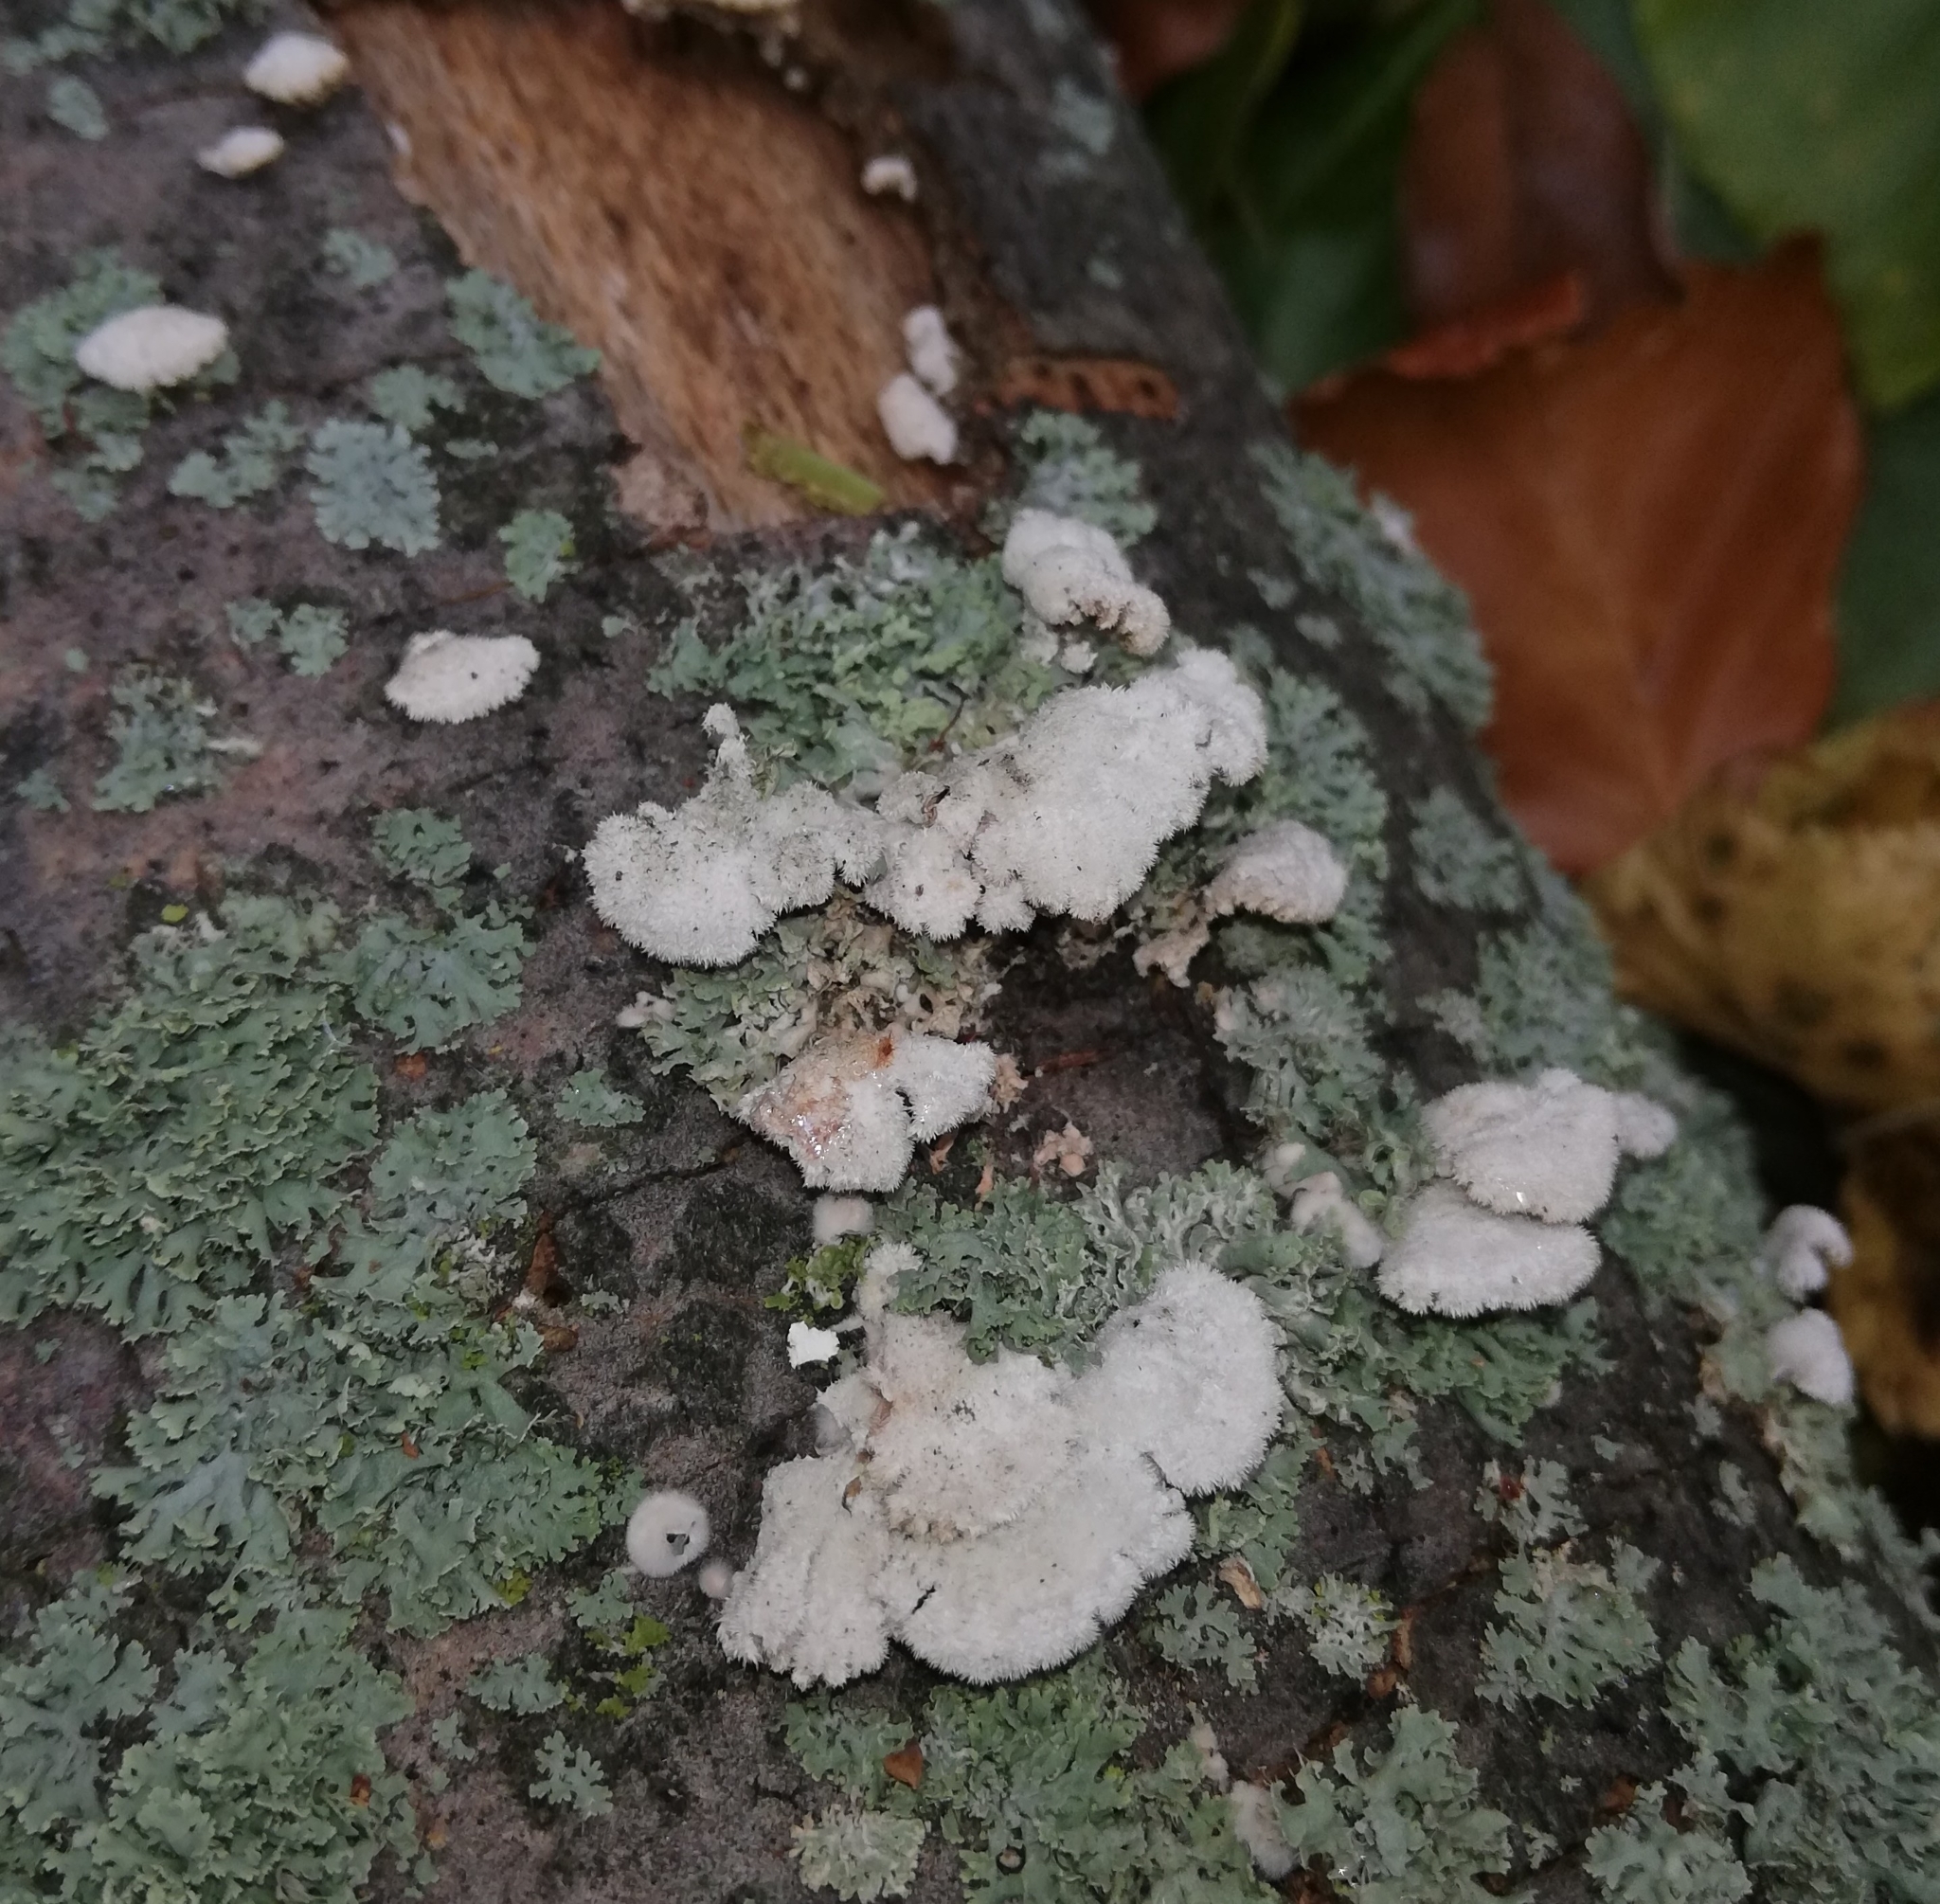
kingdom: Fungi
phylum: Basidiomycota
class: Agaricomycetes
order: Agaricales
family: Schizophyllaceae
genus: Schizophyllum
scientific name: Schizophyllum commune
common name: Common porecrust
